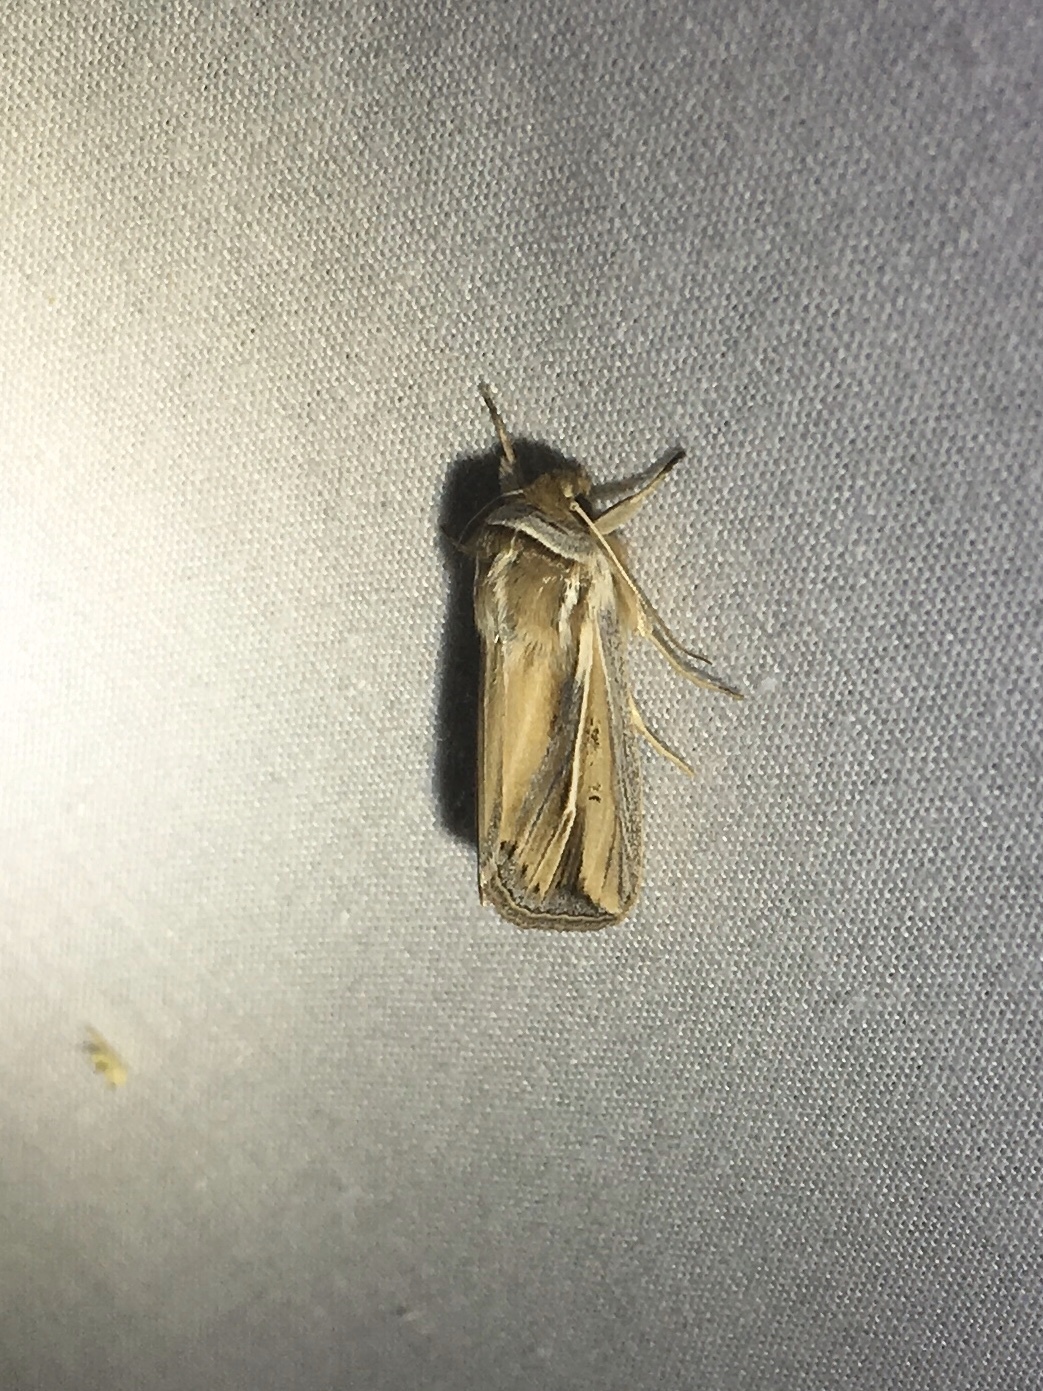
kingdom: Animalia
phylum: Arthropoda
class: Insecta
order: Lepidoptera
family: Noctuidae
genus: Dargida
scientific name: Dargida diffusa
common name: Wheat head armyworm
